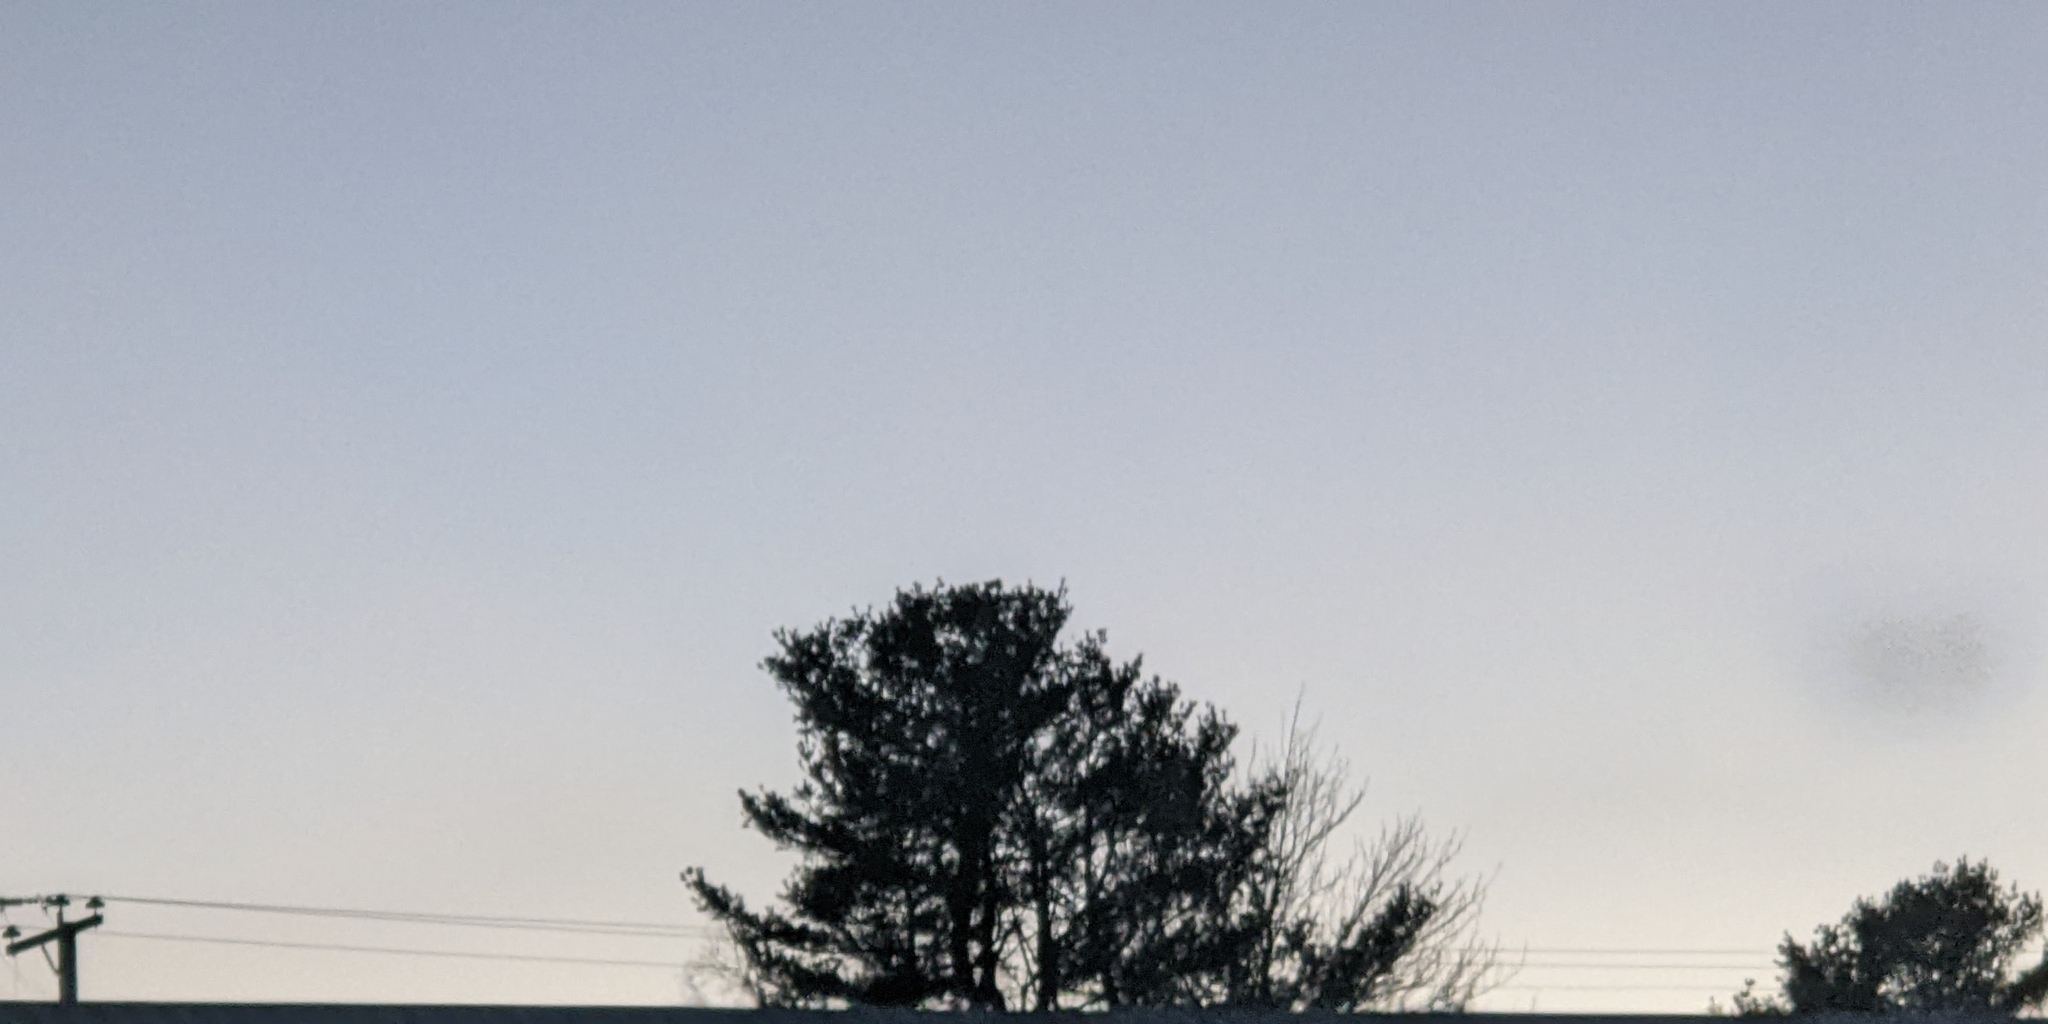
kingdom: Plantae
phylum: Tracheophyta
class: Pinopsida
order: Pinales
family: Pinaceae
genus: Pinus
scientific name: Pinus strobus
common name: Weymouth pine
